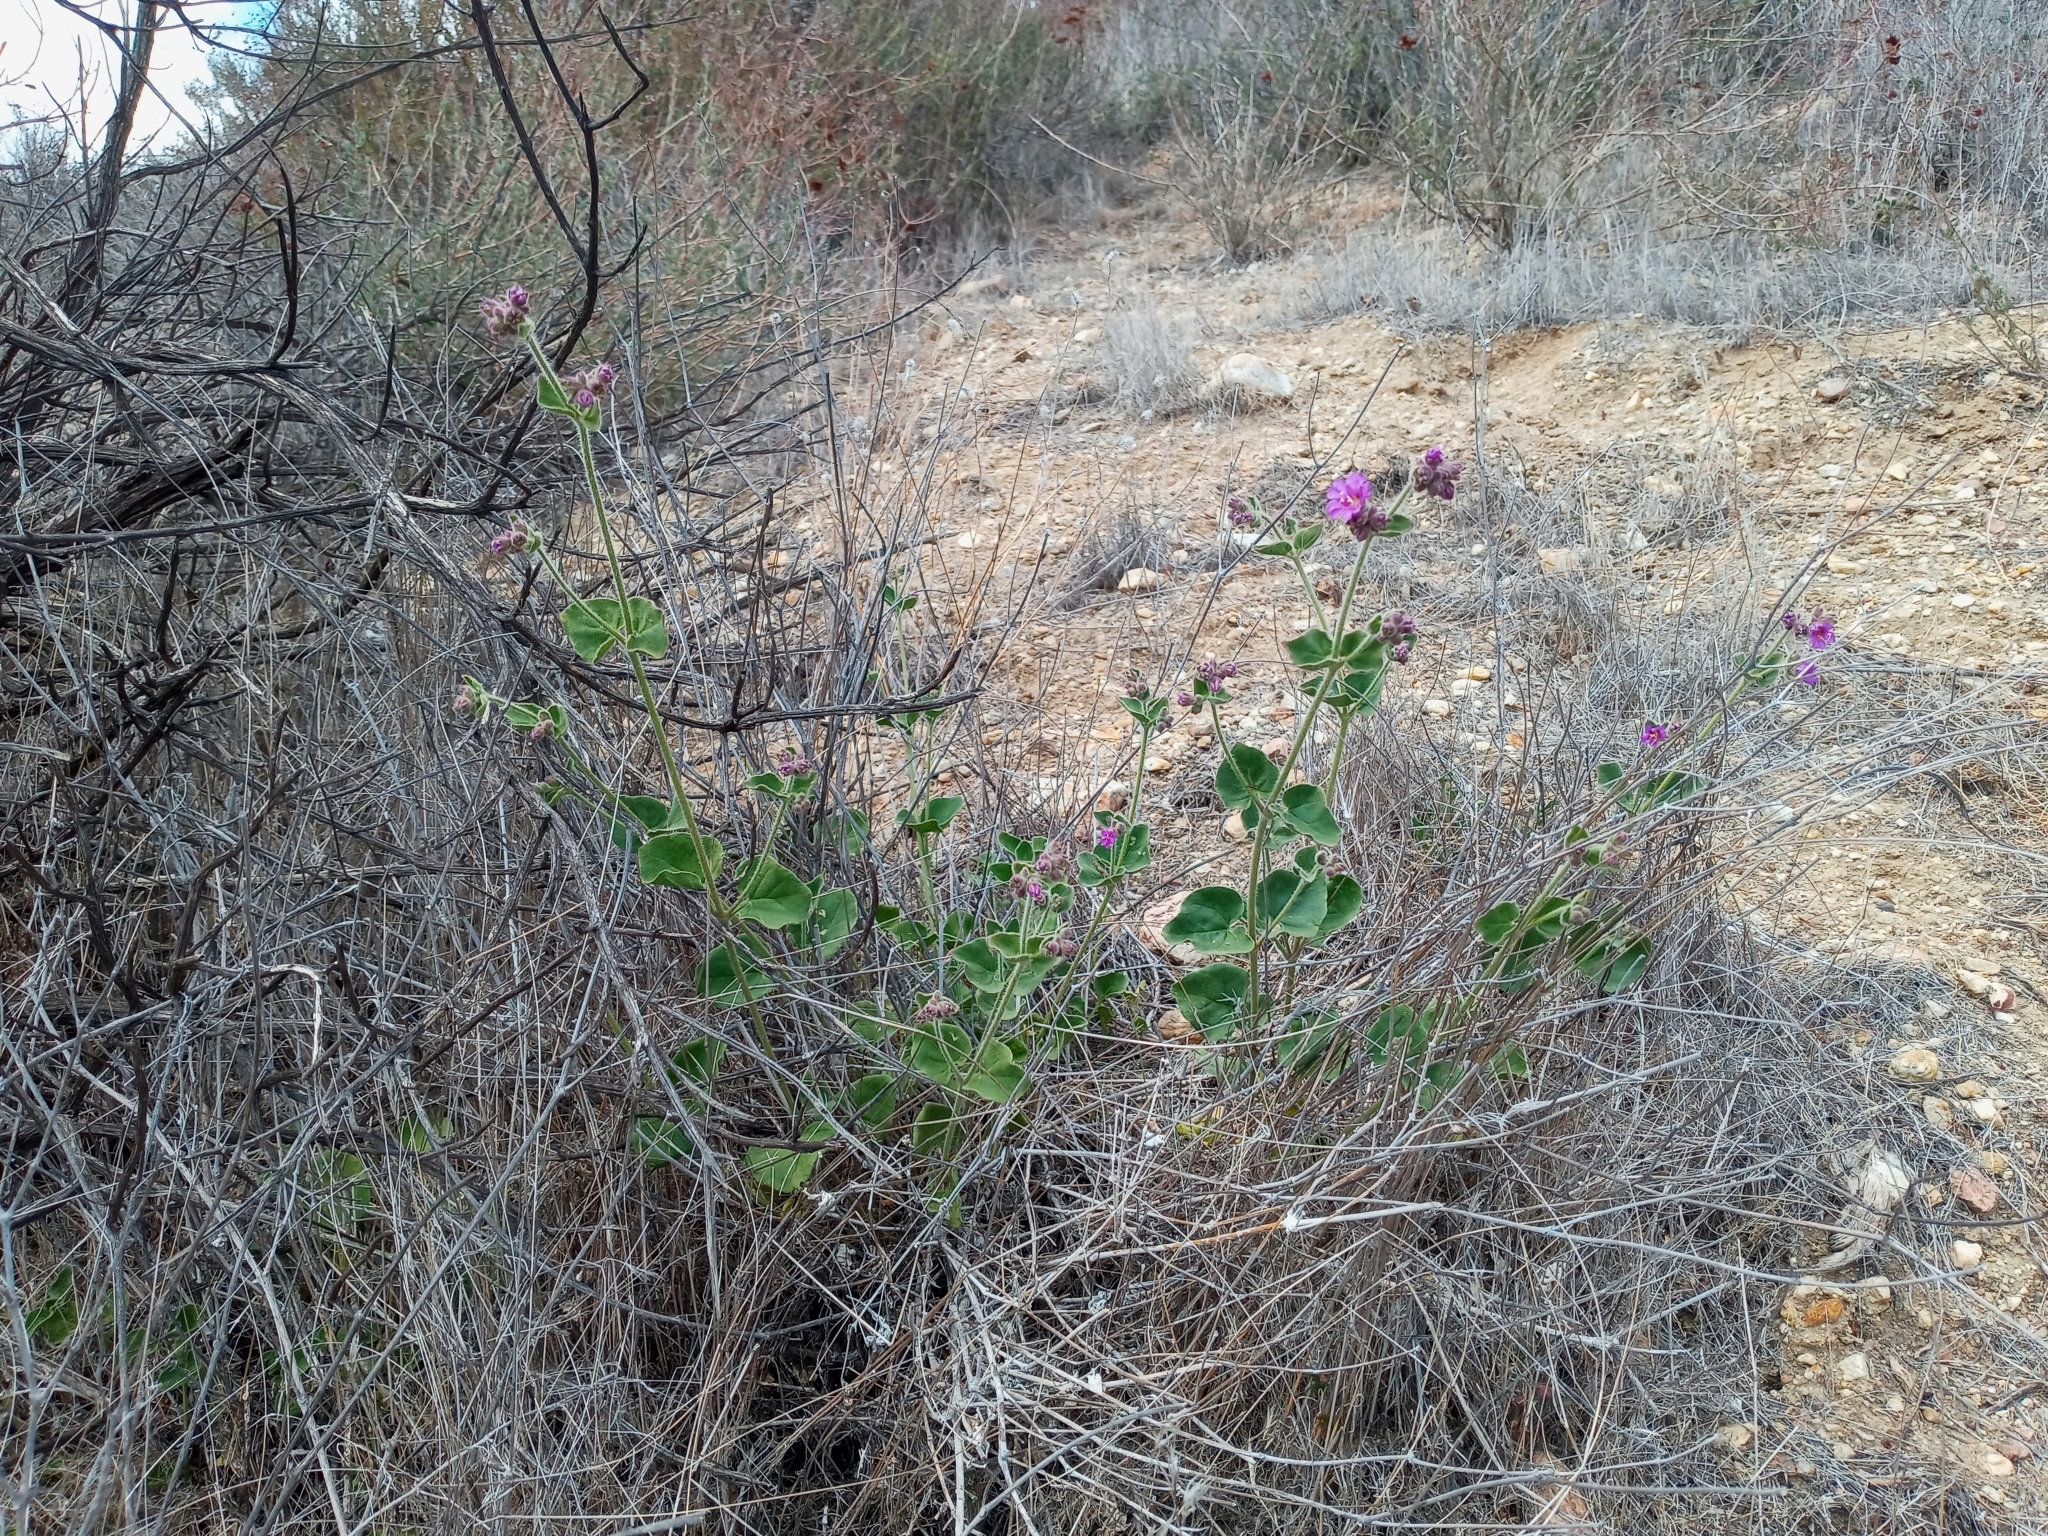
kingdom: Plantae
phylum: Tracheophyta
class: Magnoliopsida
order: Caryophyllales
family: Nyctaginaceae
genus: Mirabilis
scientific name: Mirabilis laevis
